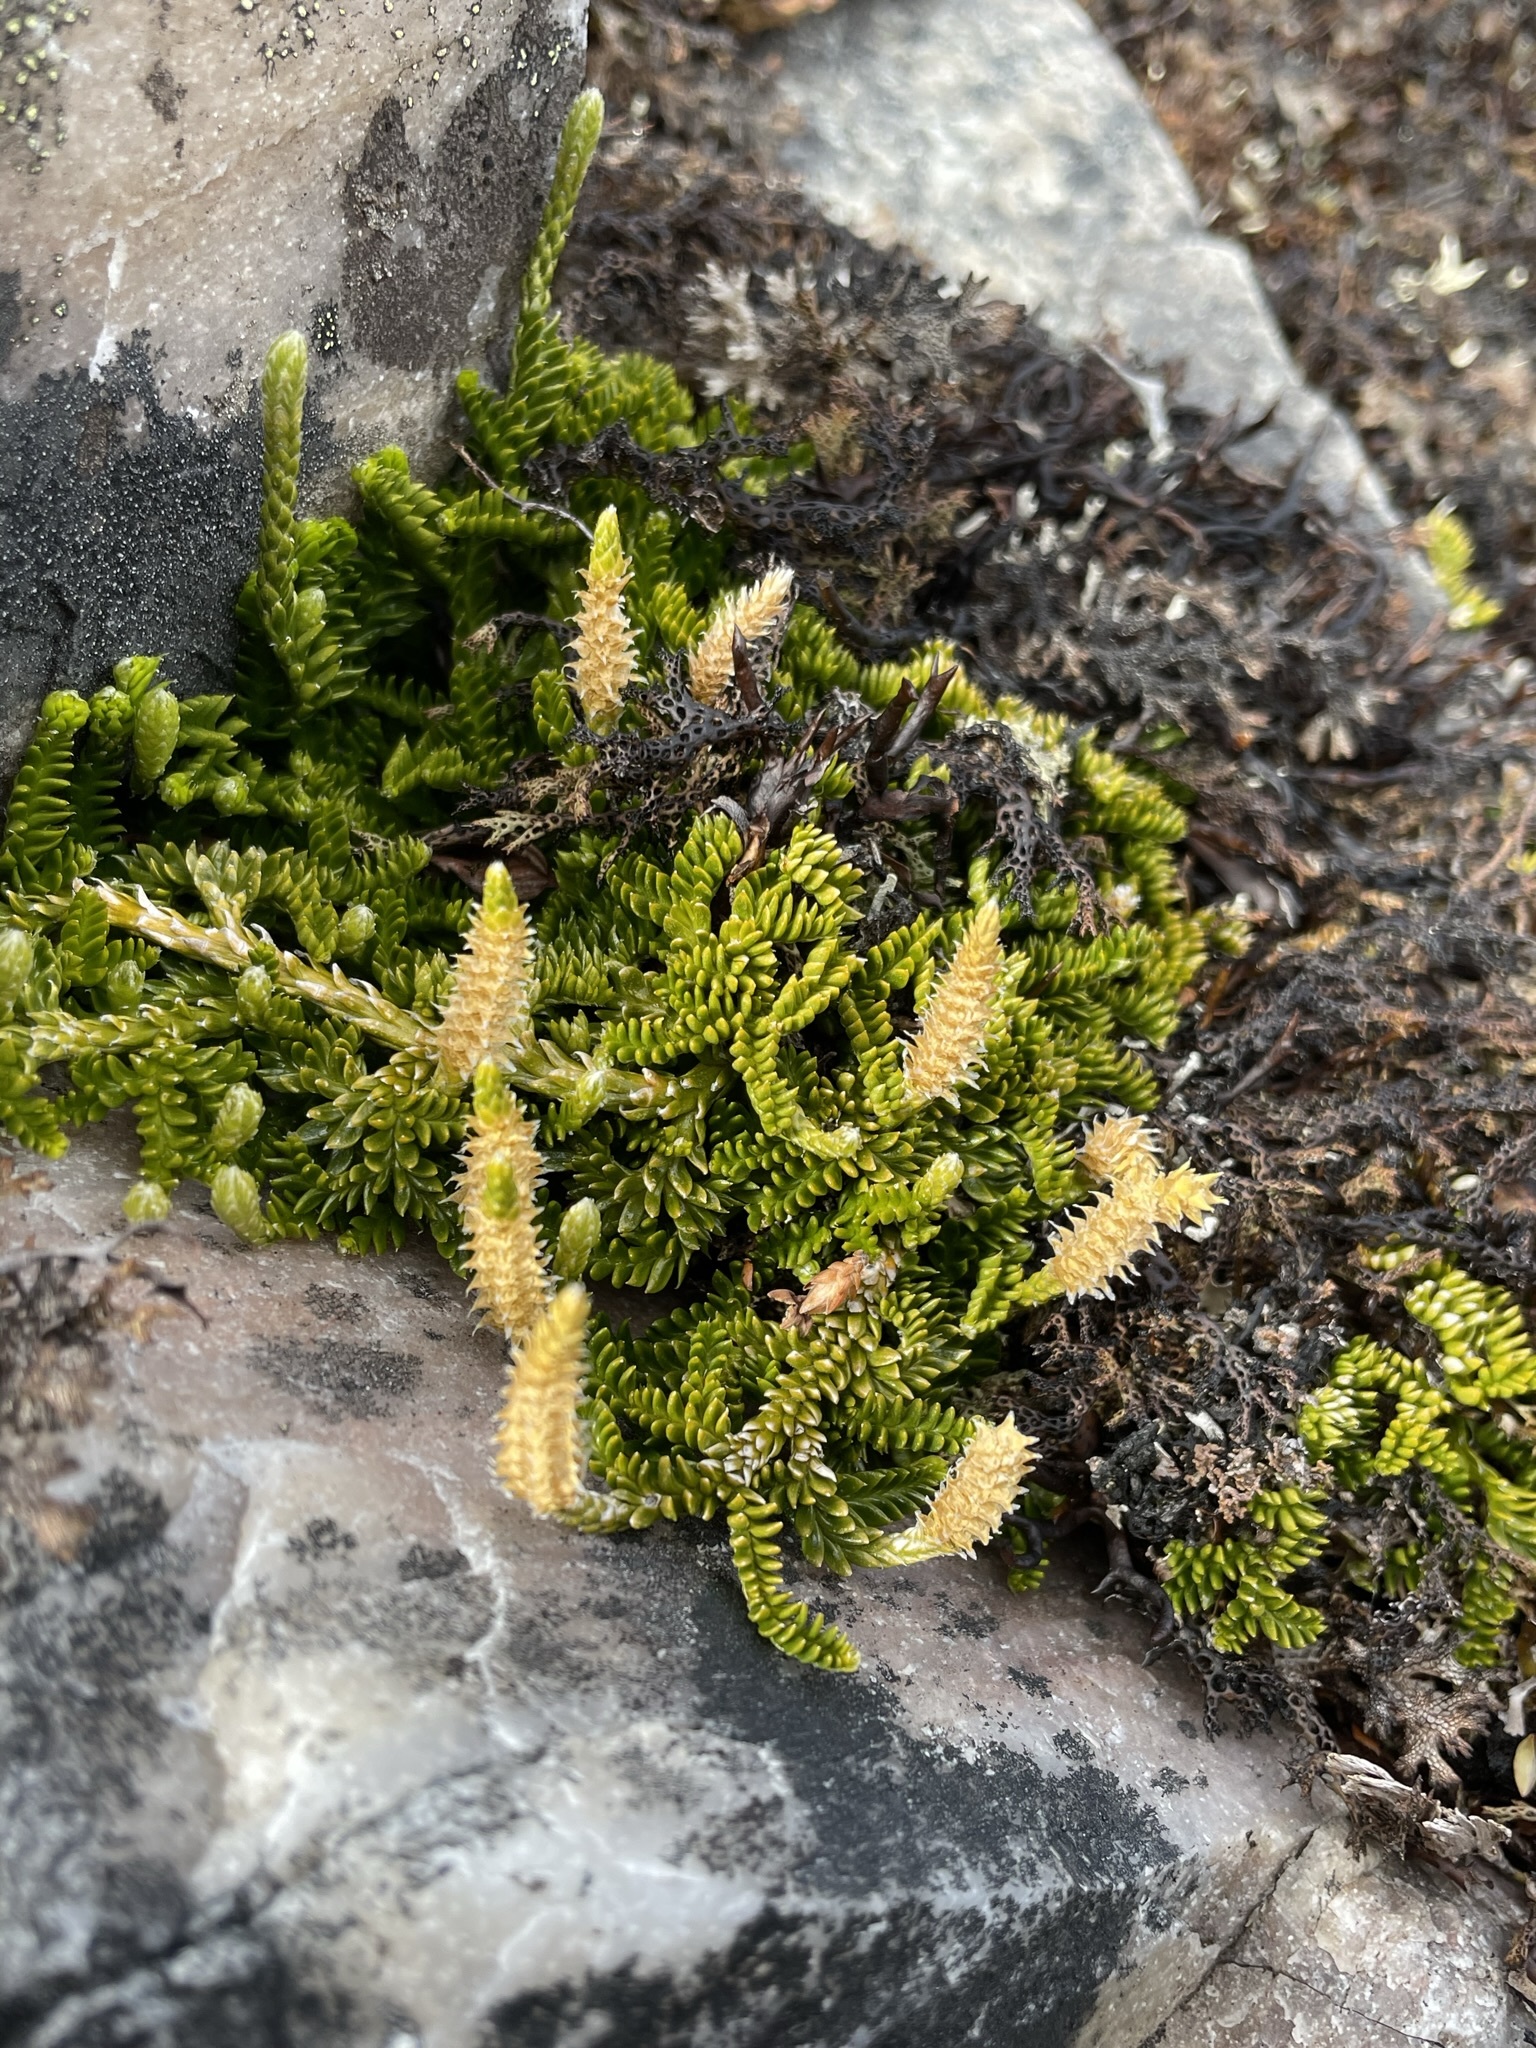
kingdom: Plantae
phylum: Tracheophyta
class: Lycopodiopsida
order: Lycopodiales
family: Lycopodiaceae
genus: Diphasium
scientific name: Diphasium scariosum
